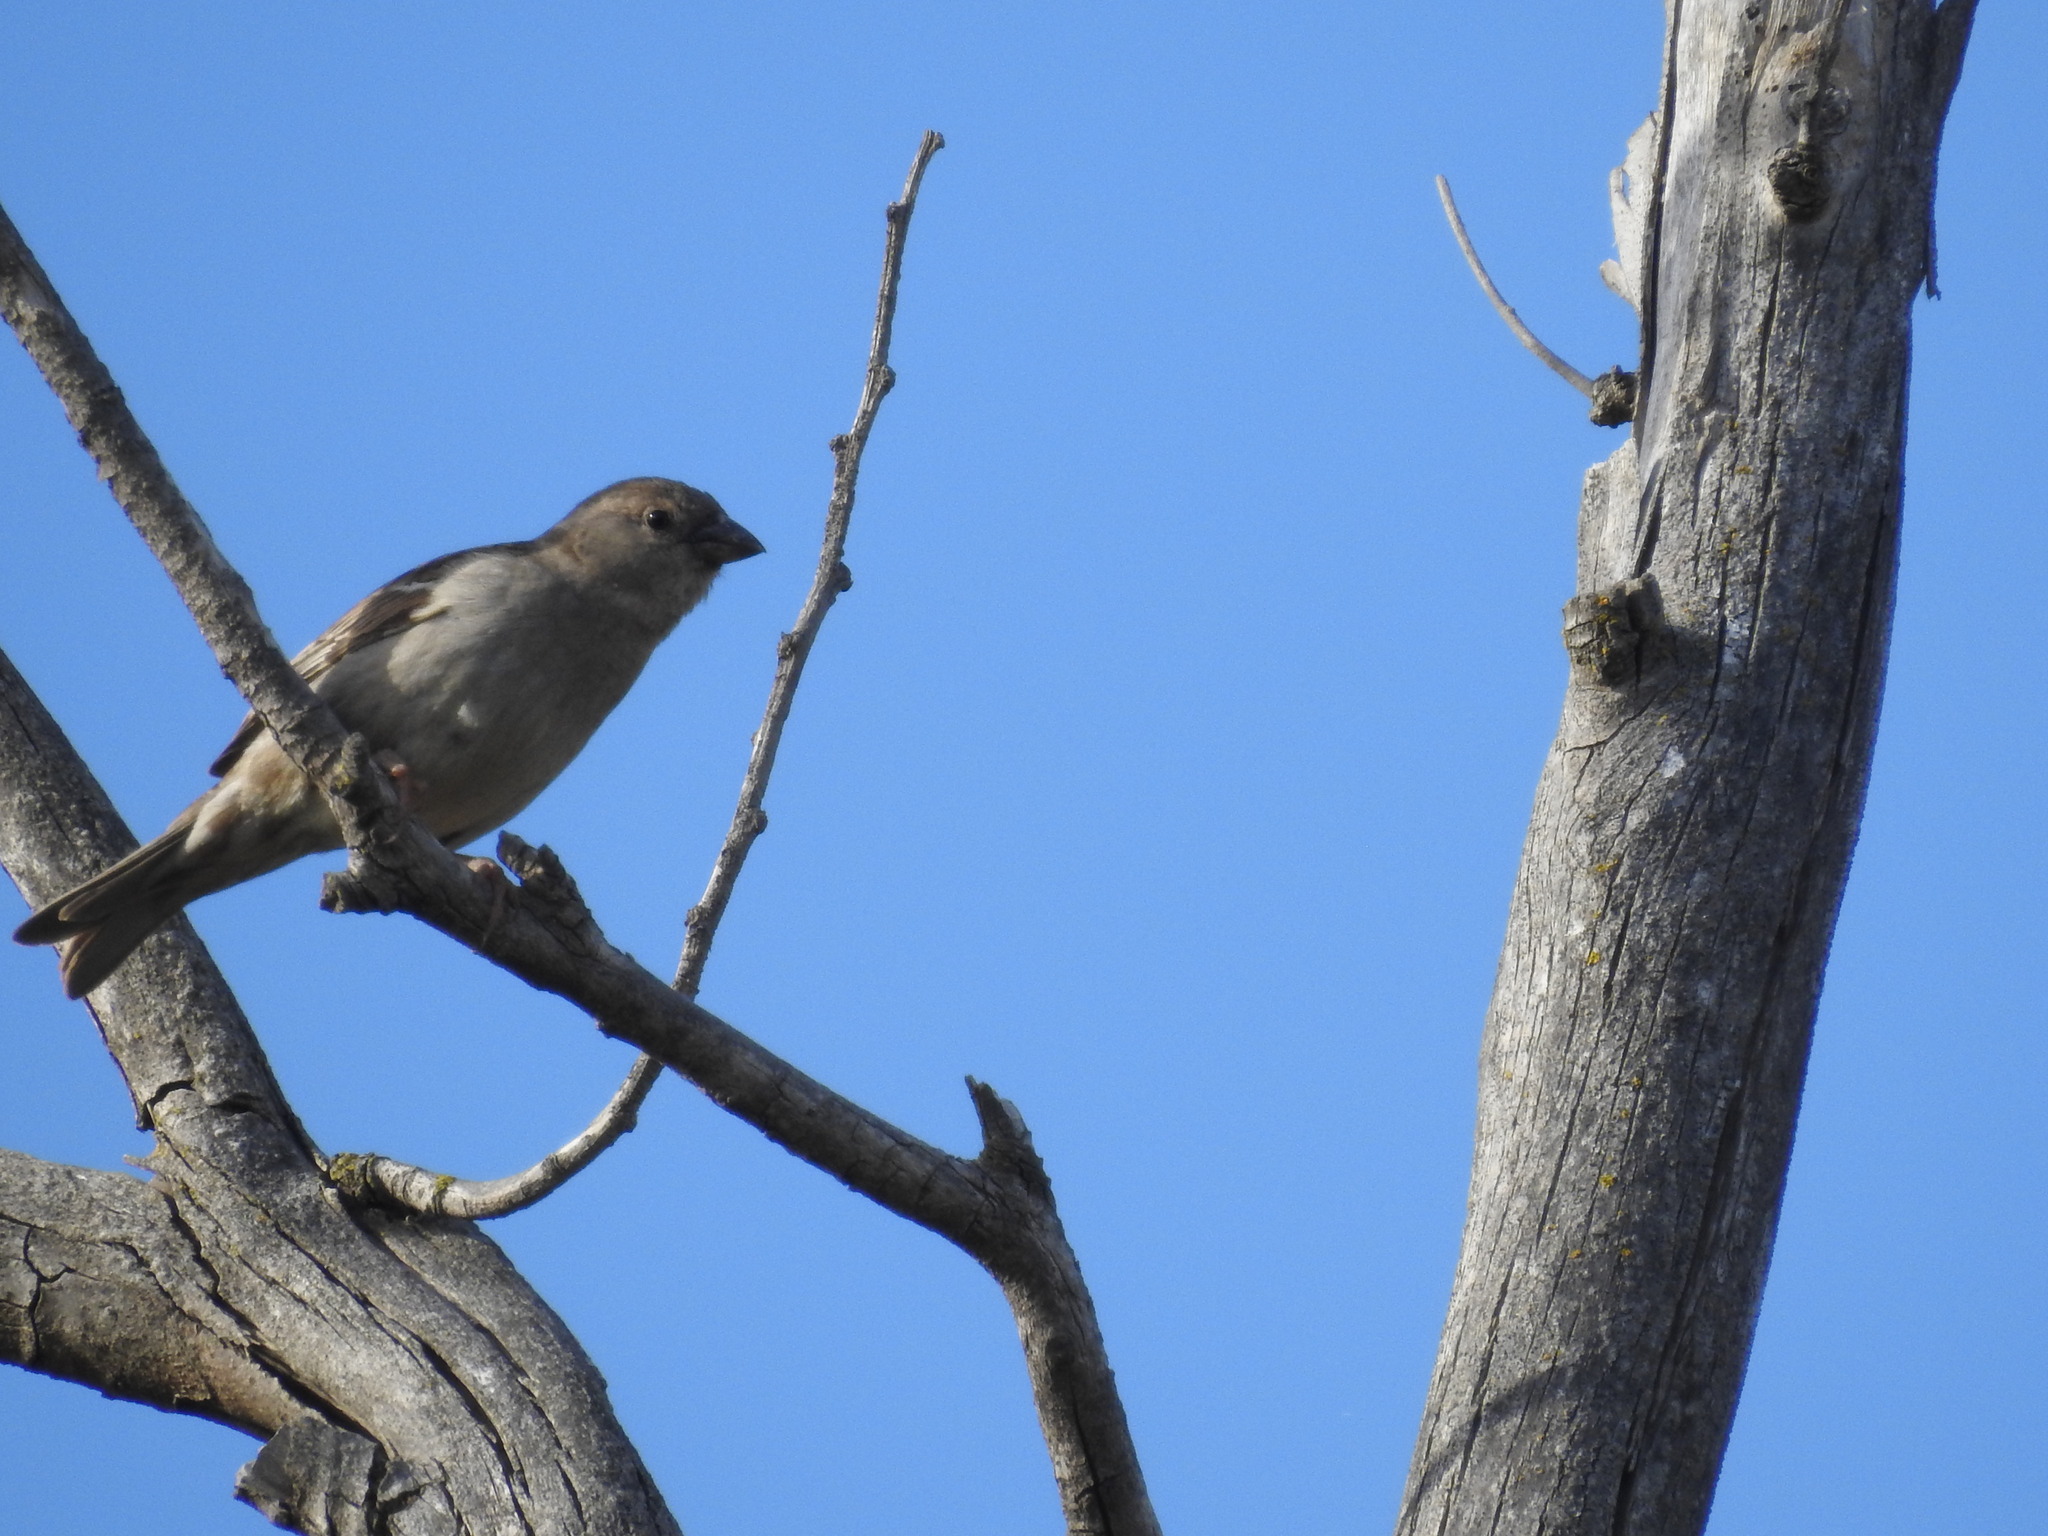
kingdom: Animalia
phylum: Chordata
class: Aves
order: Passeriformes
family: Passeridae
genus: Passer
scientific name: Passer domesticus
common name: House sparrow
